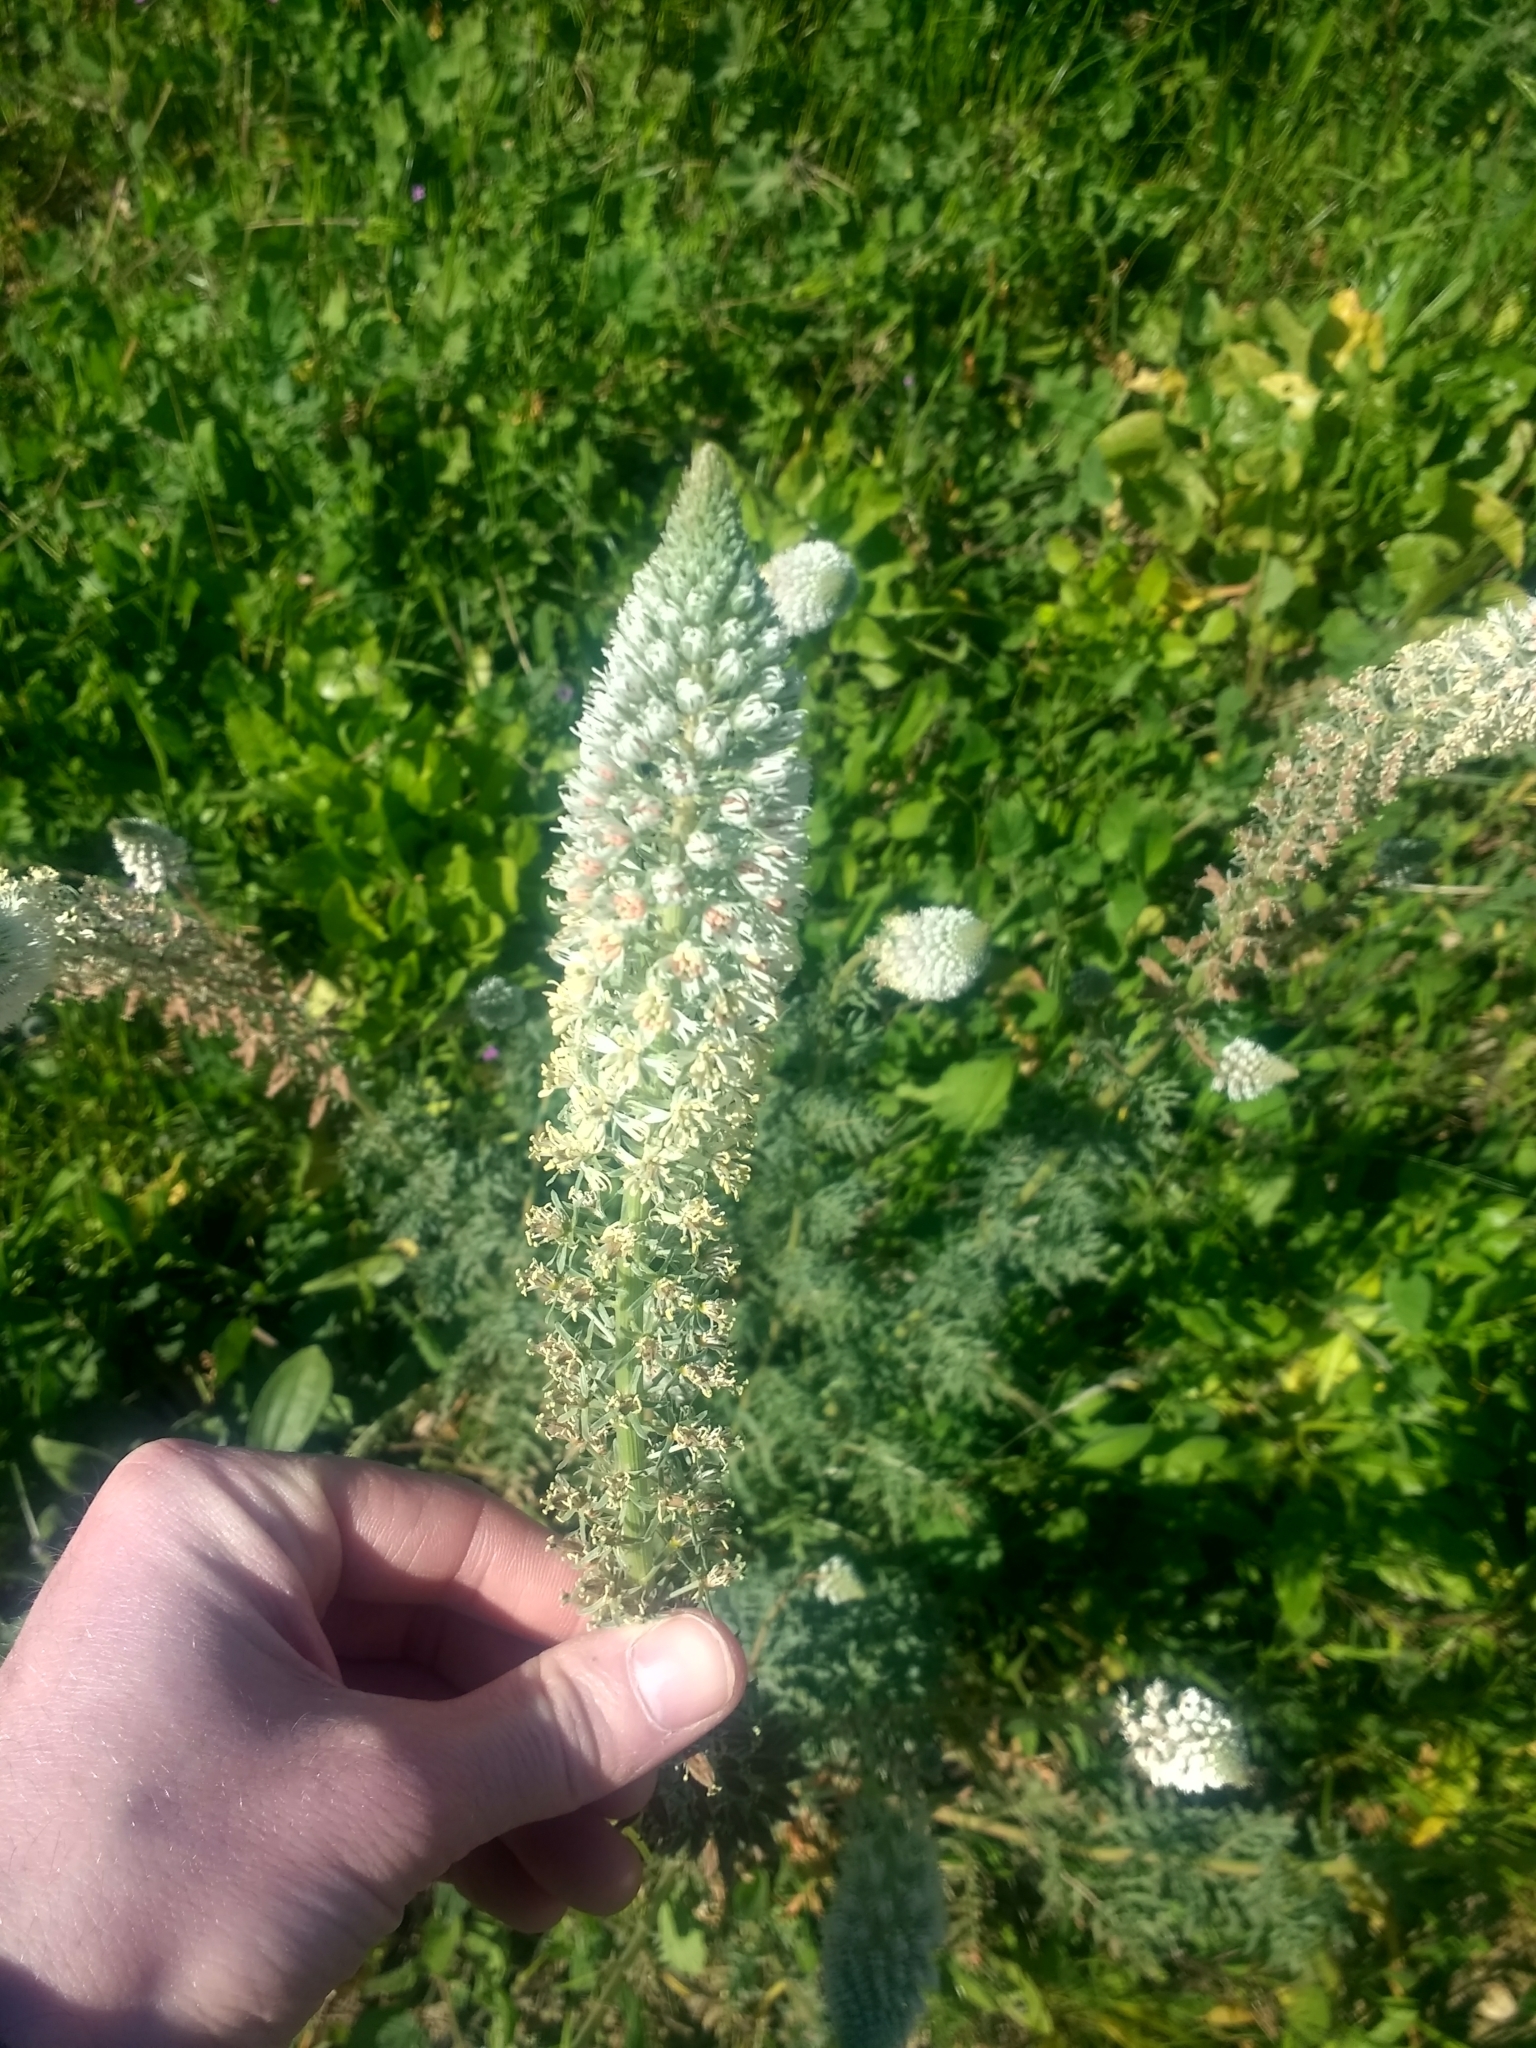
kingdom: Plantae
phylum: Tracheophyta
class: Magnoliopsida
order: Brassicales
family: Resedaceae
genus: Reseda
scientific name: Reseda alba
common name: White mignonette
